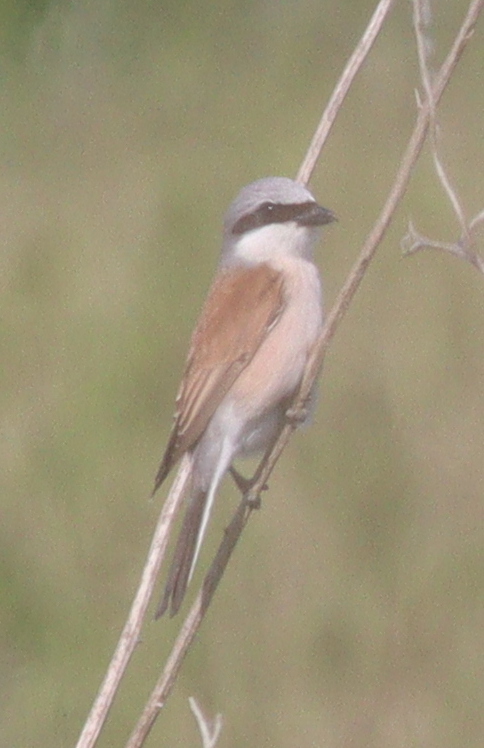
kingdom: Animalia
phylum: Chordata
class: Aves
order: Passeriformes
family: Laniidae
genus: Lanius
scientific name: Lanius collurio
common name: Red-backed shrike
